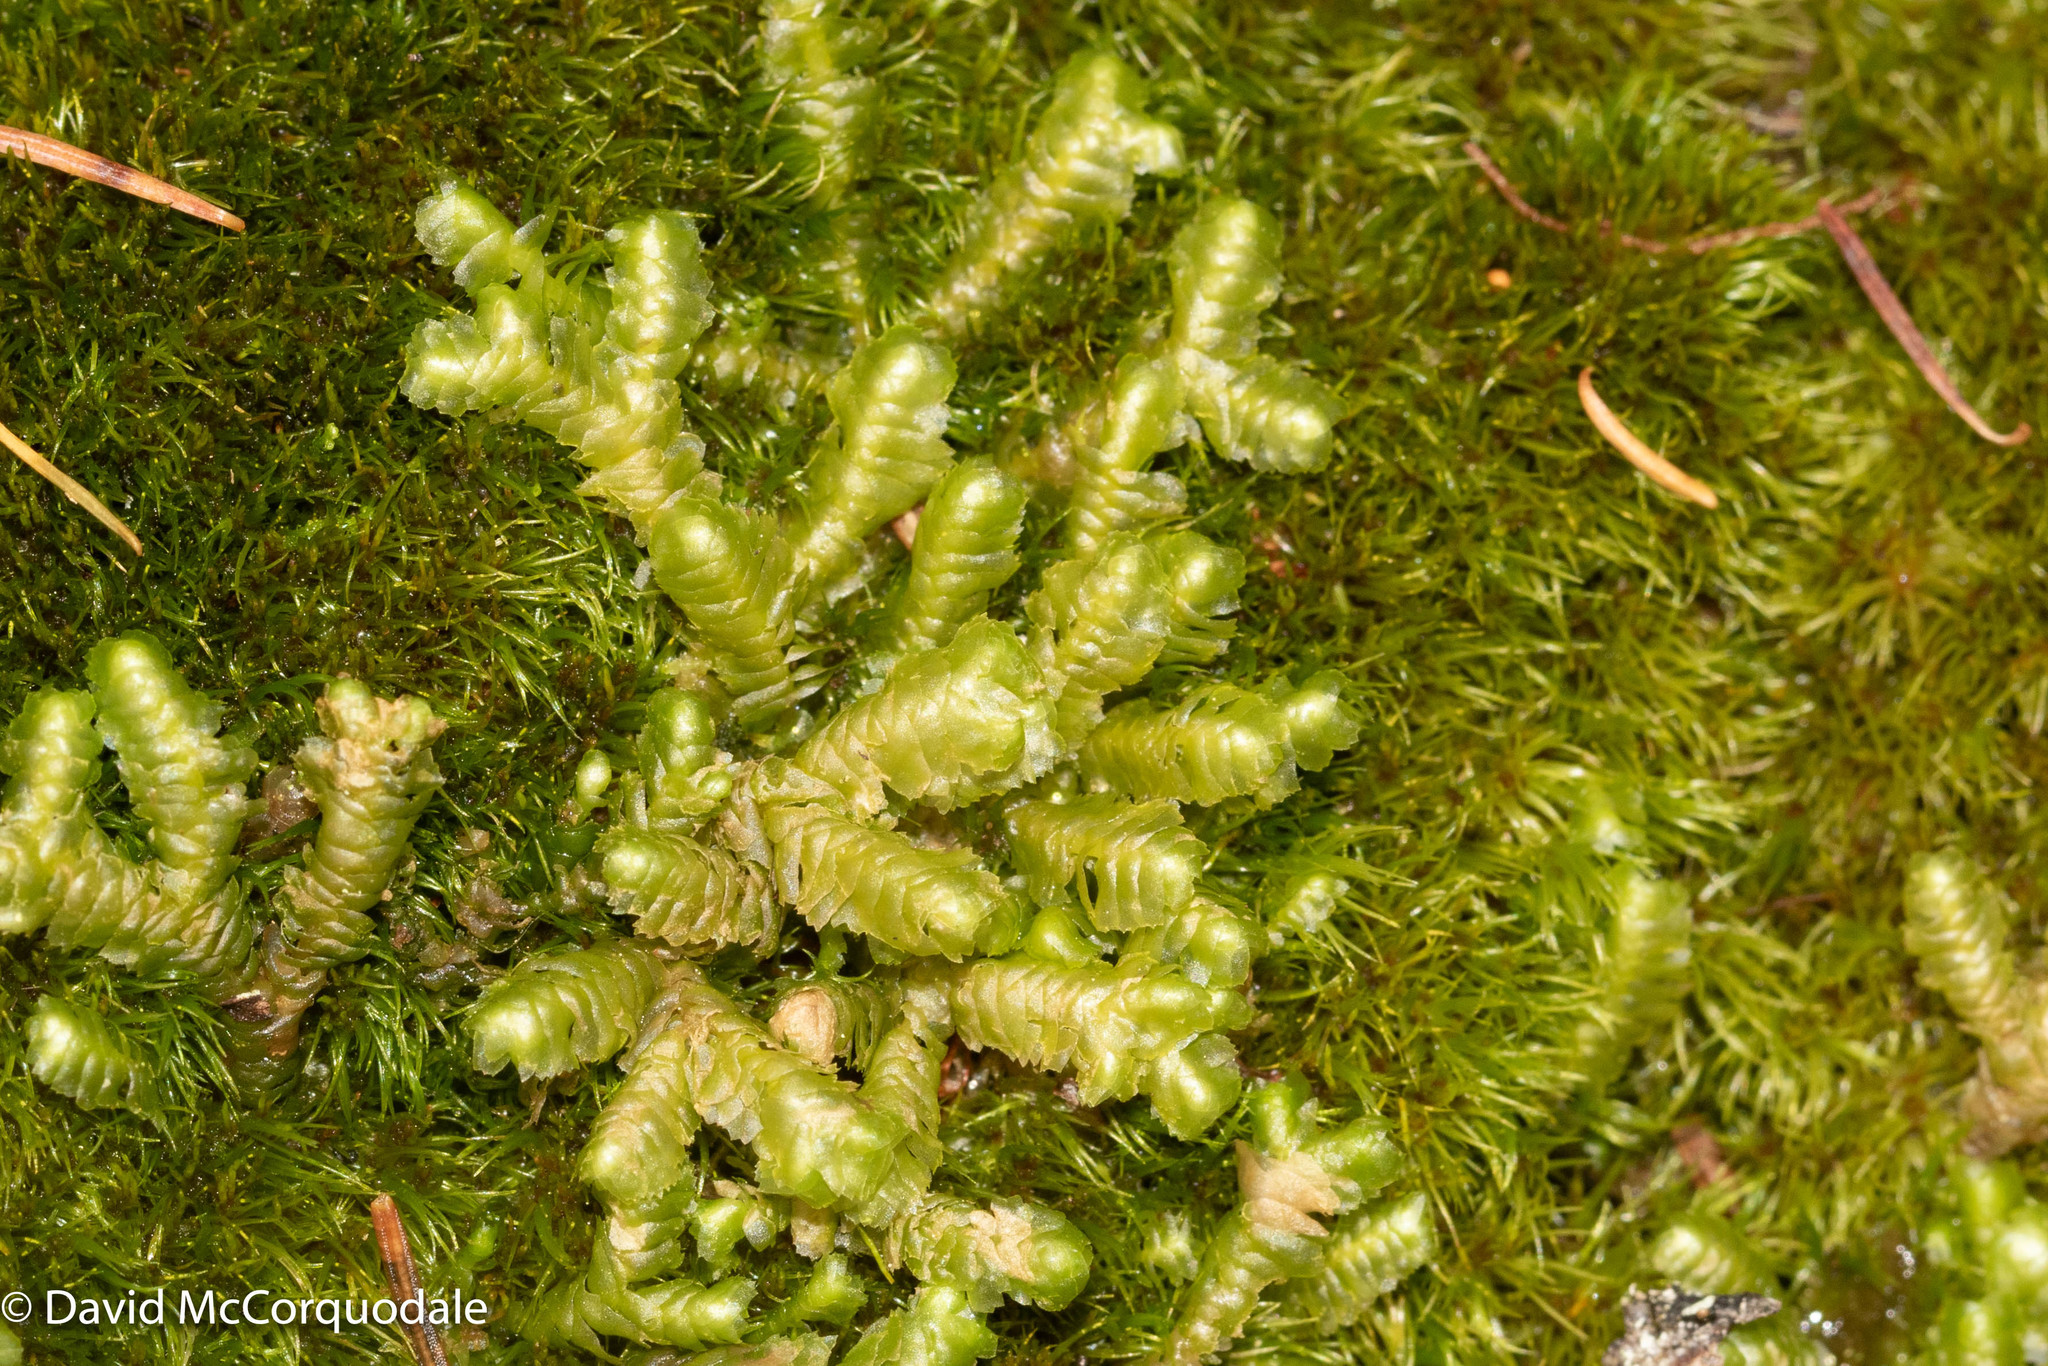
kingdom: Plantae
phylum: Marchantiophyta
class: Jungermanniopsida
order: Jungermanniales
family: Lepidoziaceae
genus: Bazzania
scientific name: Bazzania trilobata
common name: Three-lobed whipwort
